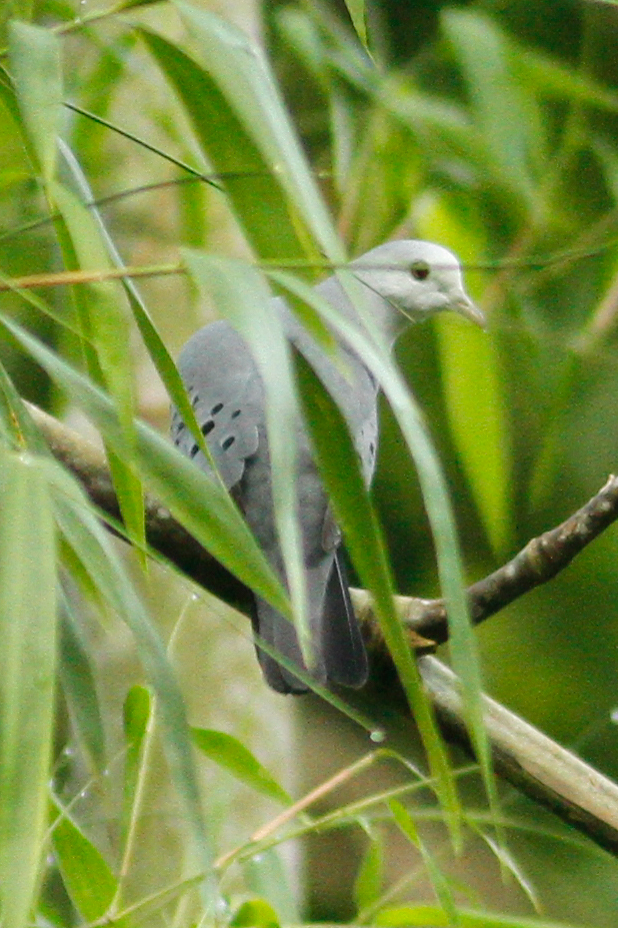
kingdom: Animalia
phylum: Chordata
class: Aves
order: Columbiformes
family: Columbidae
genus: Claravis
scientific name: Claravis pretiosa
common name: Blue ground-dove
